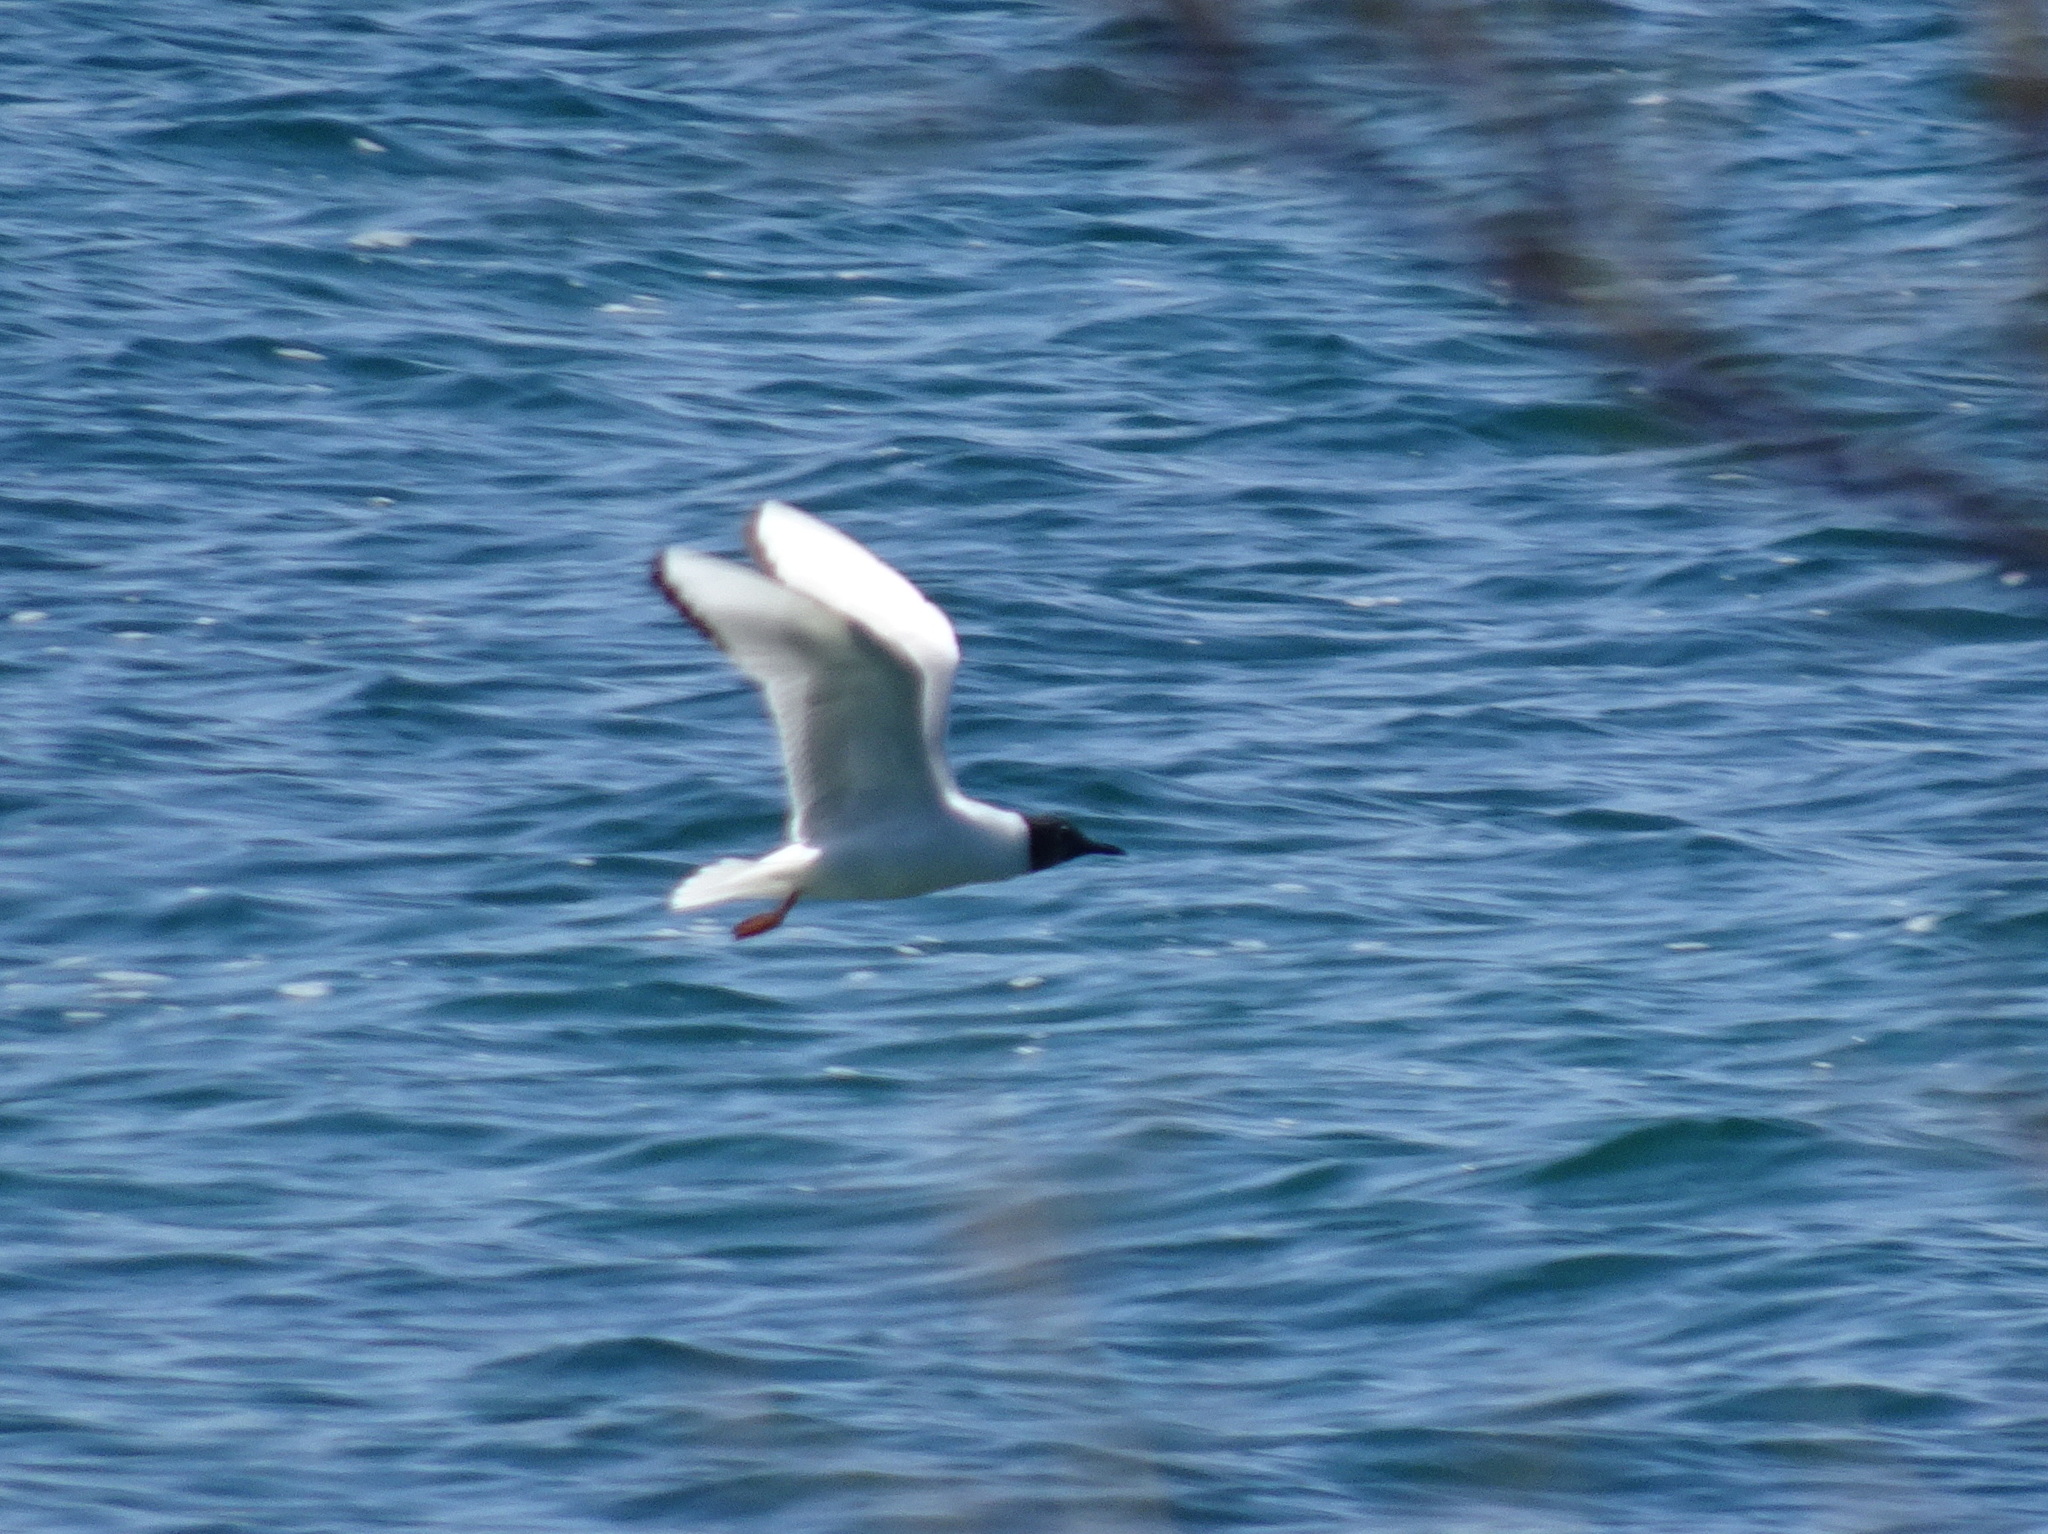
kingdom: Animalia
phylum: Chordata
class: Aves
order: Charadriiformes
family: Laridae
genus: Chroicocephalus
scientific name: Chroicocephalus philadelphia
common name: Bonaparte's gull
